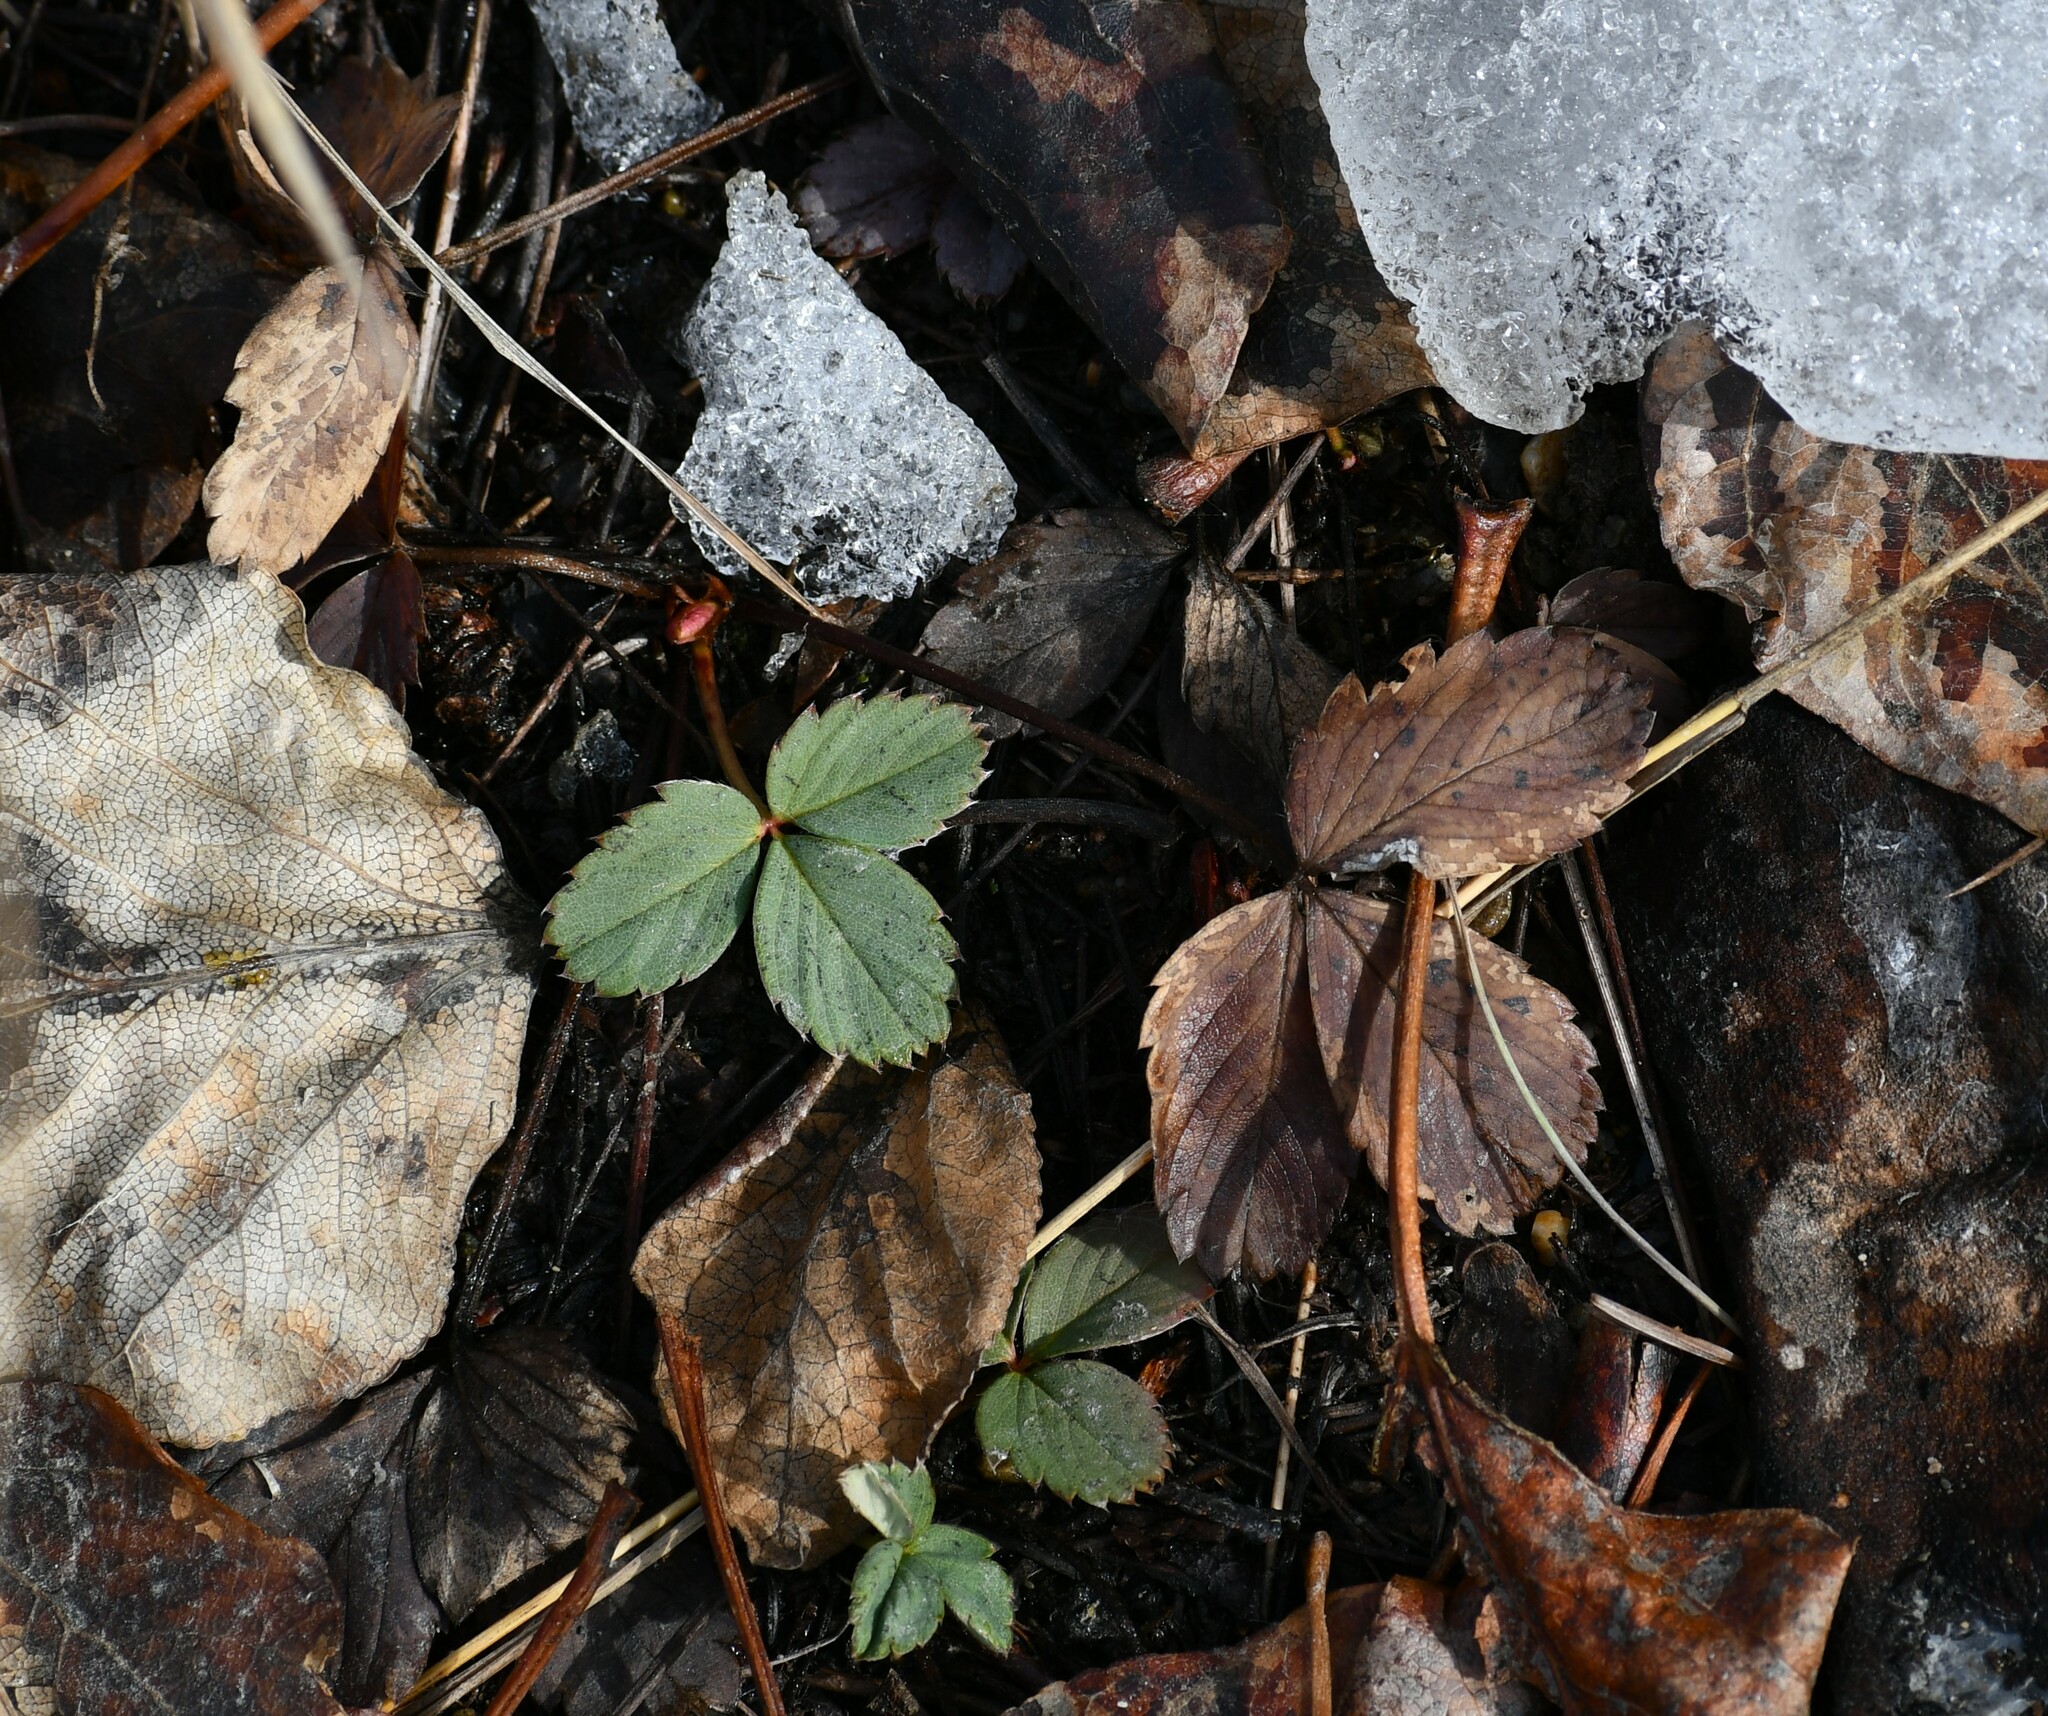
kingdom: Plantae
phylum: Tracheophyta
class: Magnoliopsida
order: Rosales
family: Rosaceae
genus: Fragaria
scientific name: Fragaria virginiana
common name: Thickleaved wild strawberry
